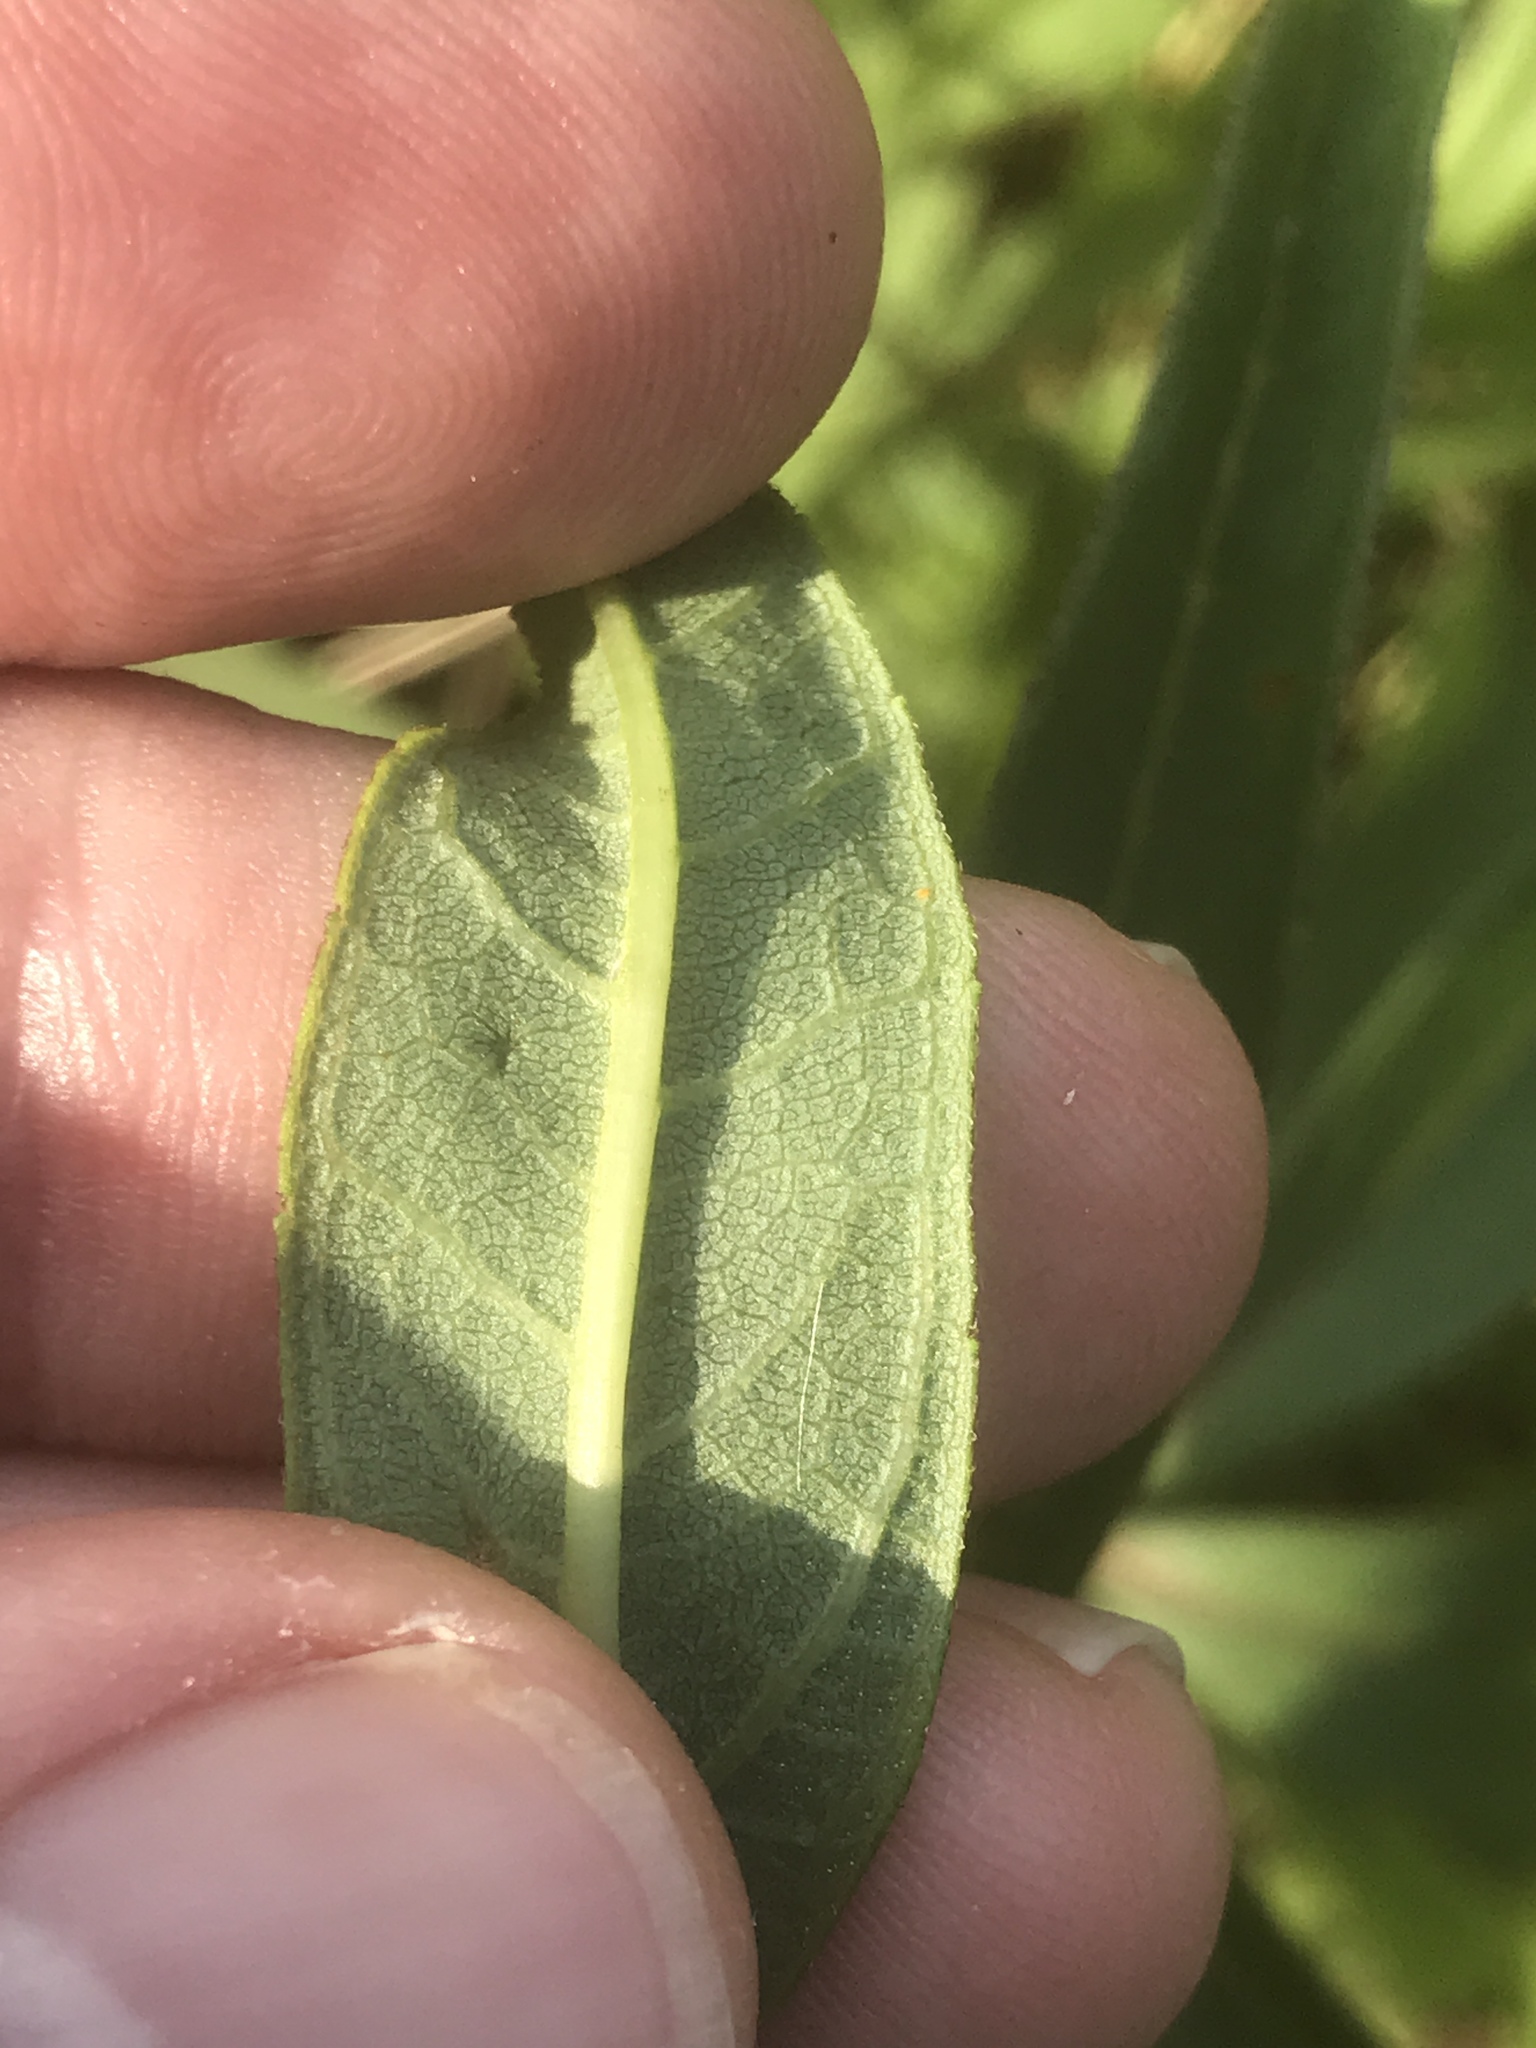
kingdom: Plantae
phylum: Tracheophyta
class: Magnoliopsida
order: Asterales
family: Asteraceae
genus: Helianthus
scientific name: Helianthus laevigatus
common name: Smooth sunflower
